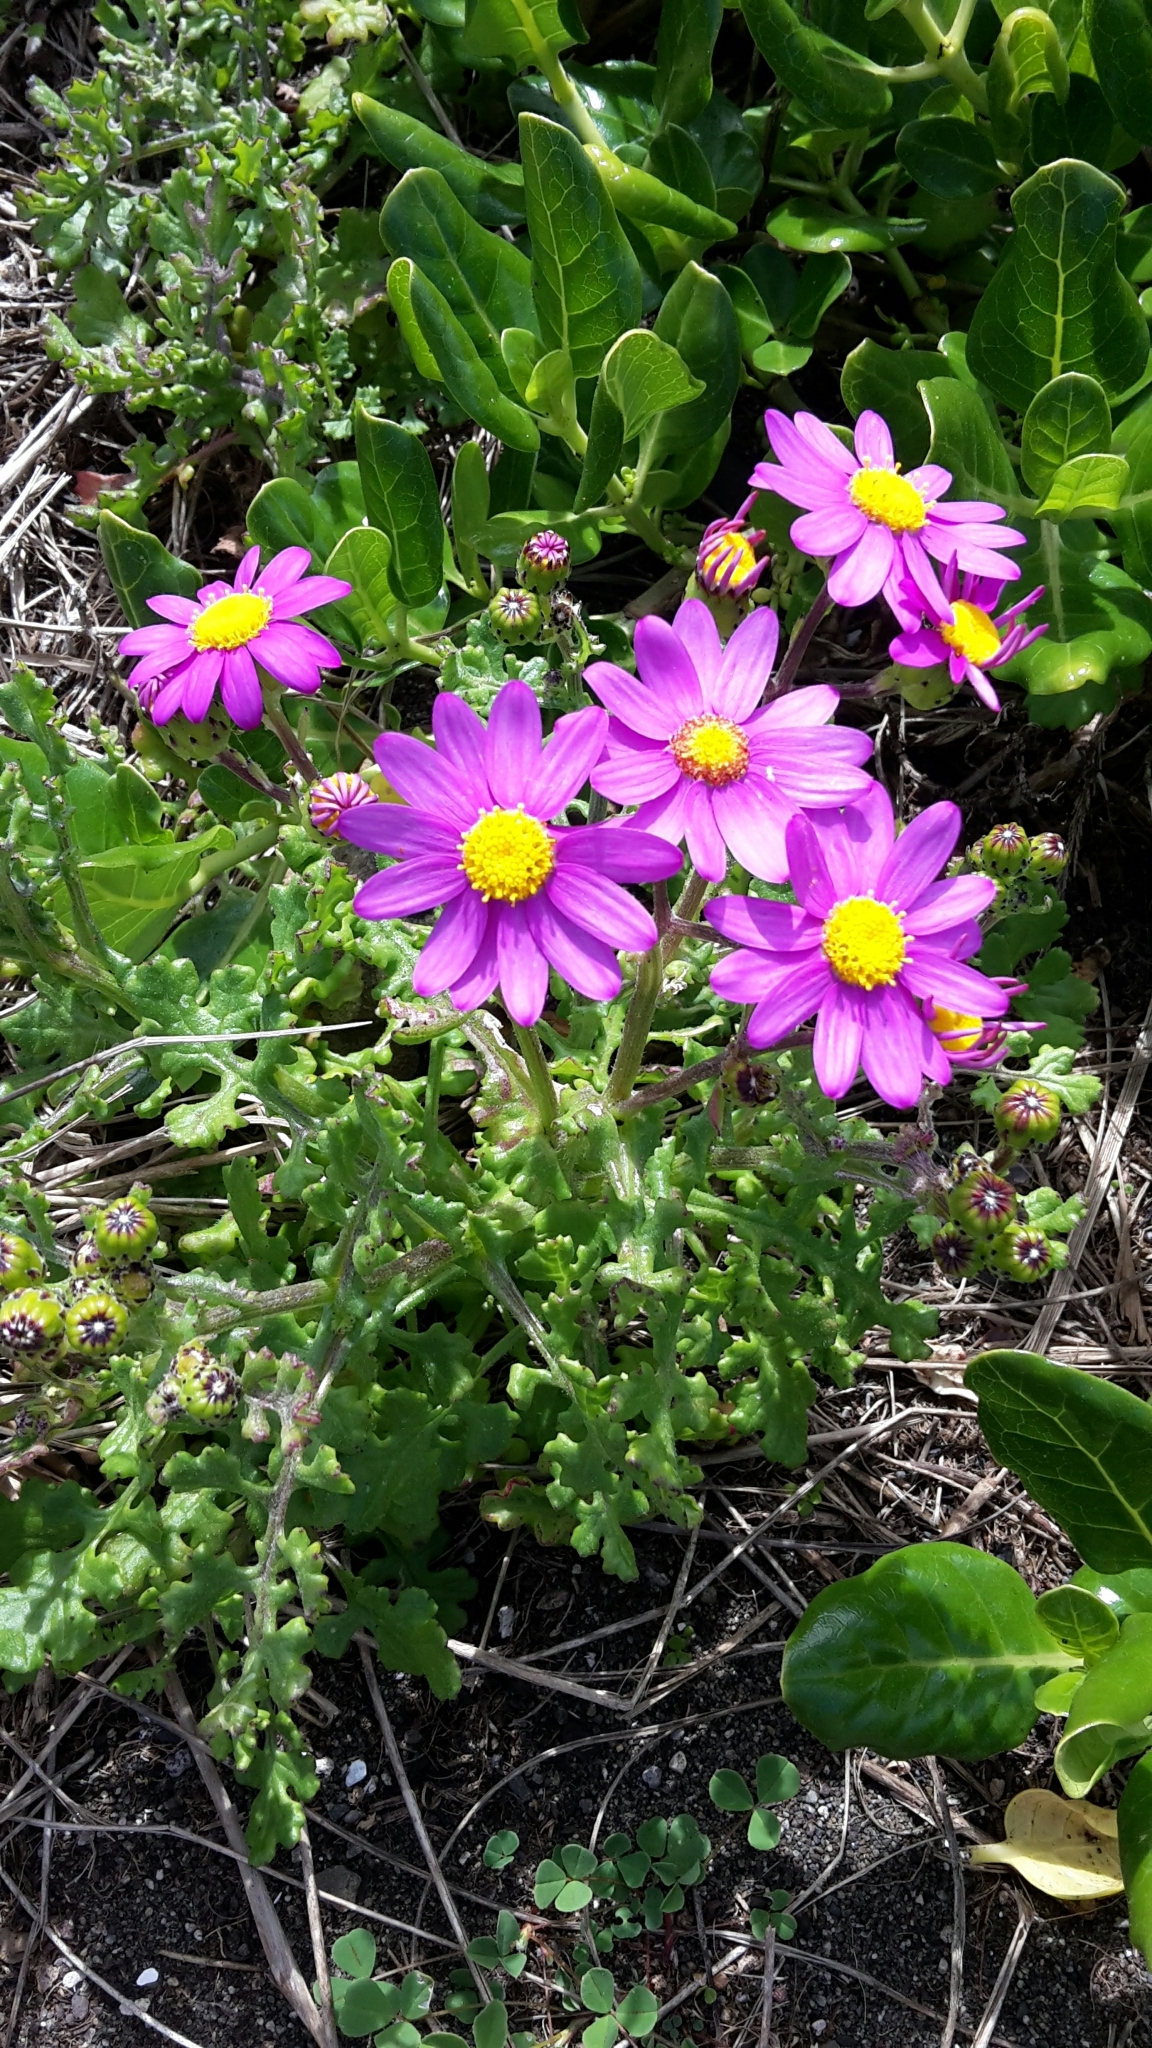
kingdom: Plantae
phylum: Tracheophyta
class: Magnoliopsida
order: Asterales
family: Asteraceae
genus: Senecio
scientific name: Senecio elegans
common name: Purple groundsel
